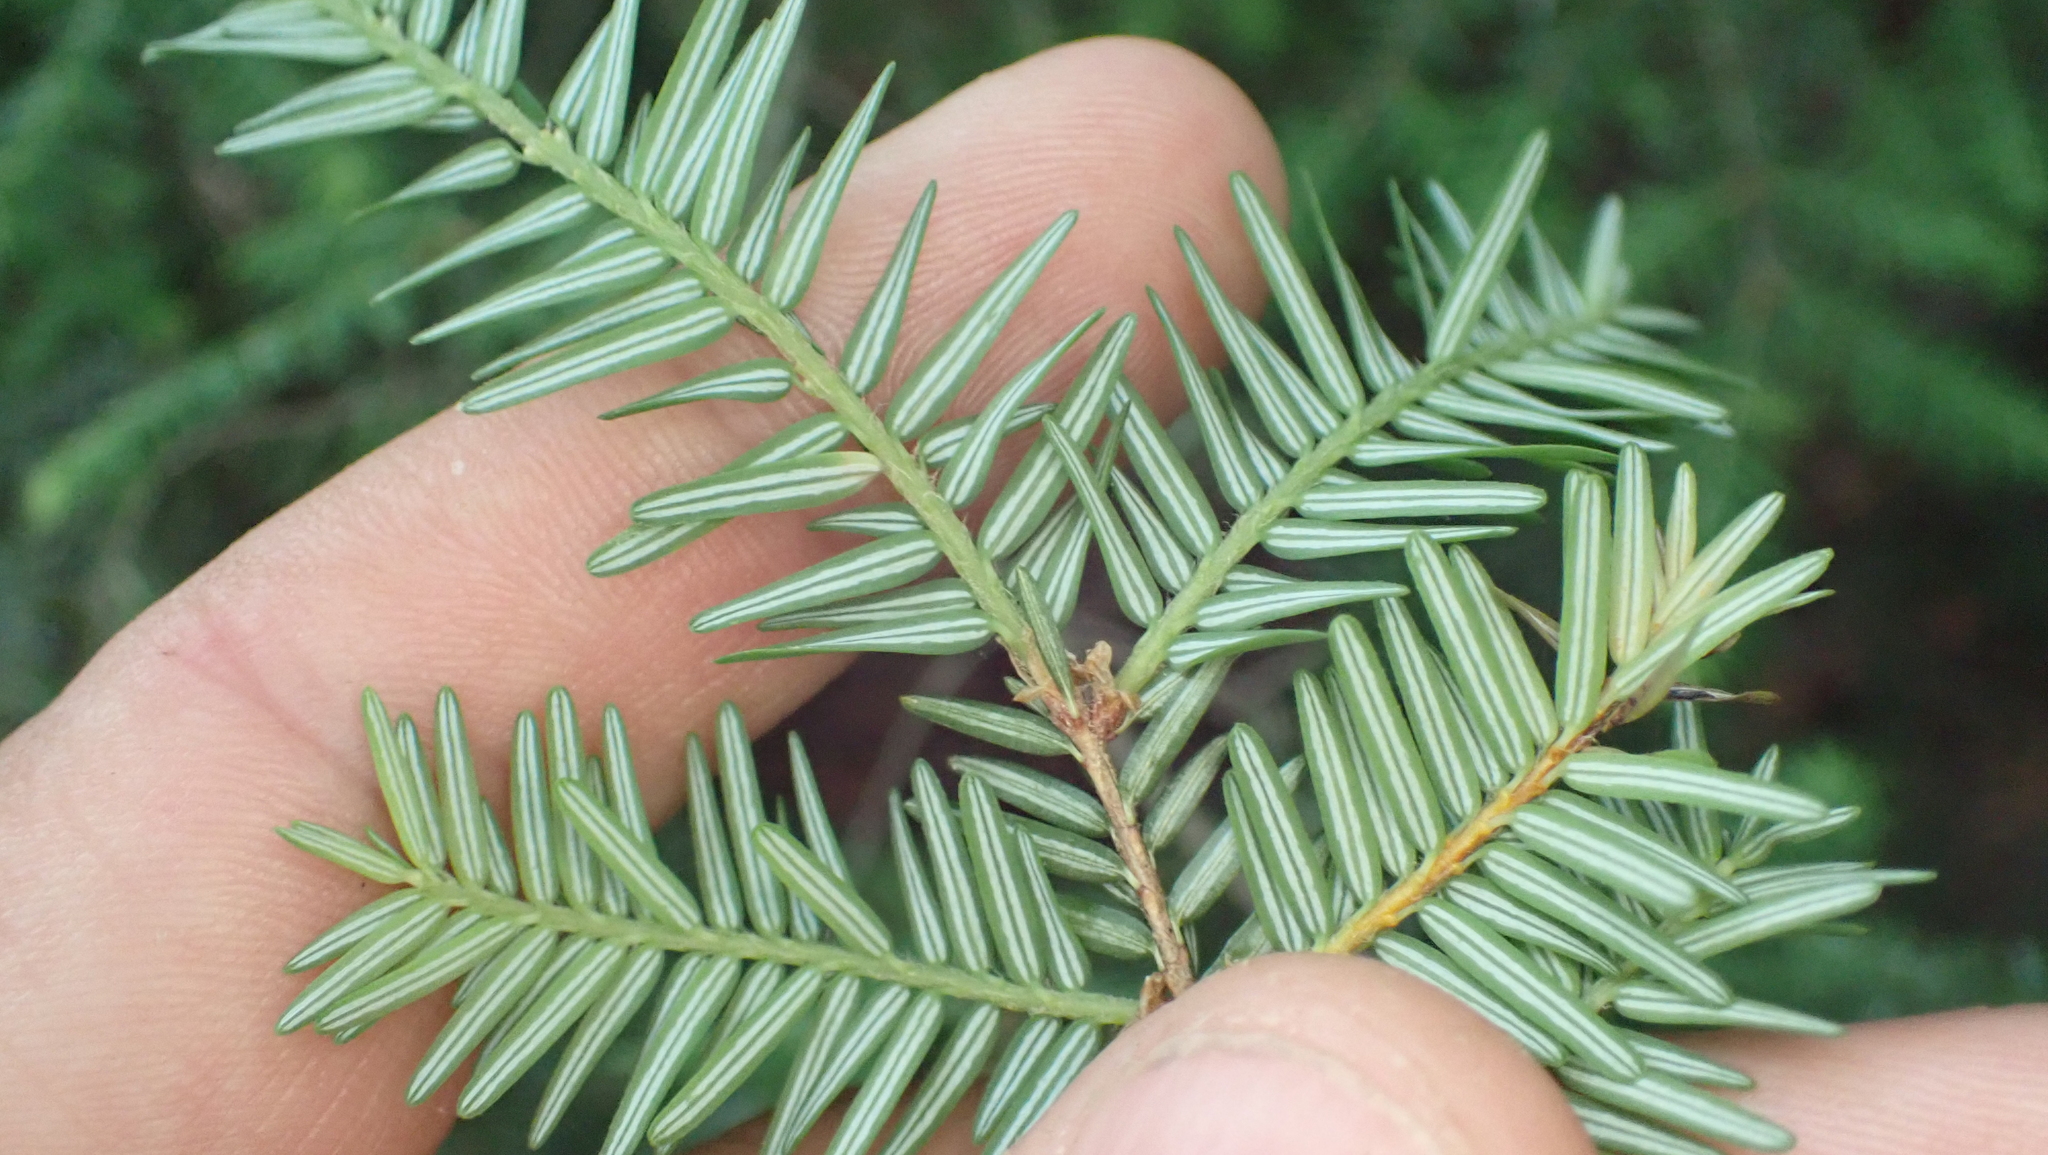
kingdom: Plantae
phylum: Tracheophyta
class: Pinopsida
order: Pinales
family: Pinaceae
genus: Tsuga
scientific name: Tsuga canadensis
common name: Eastern hemlock
